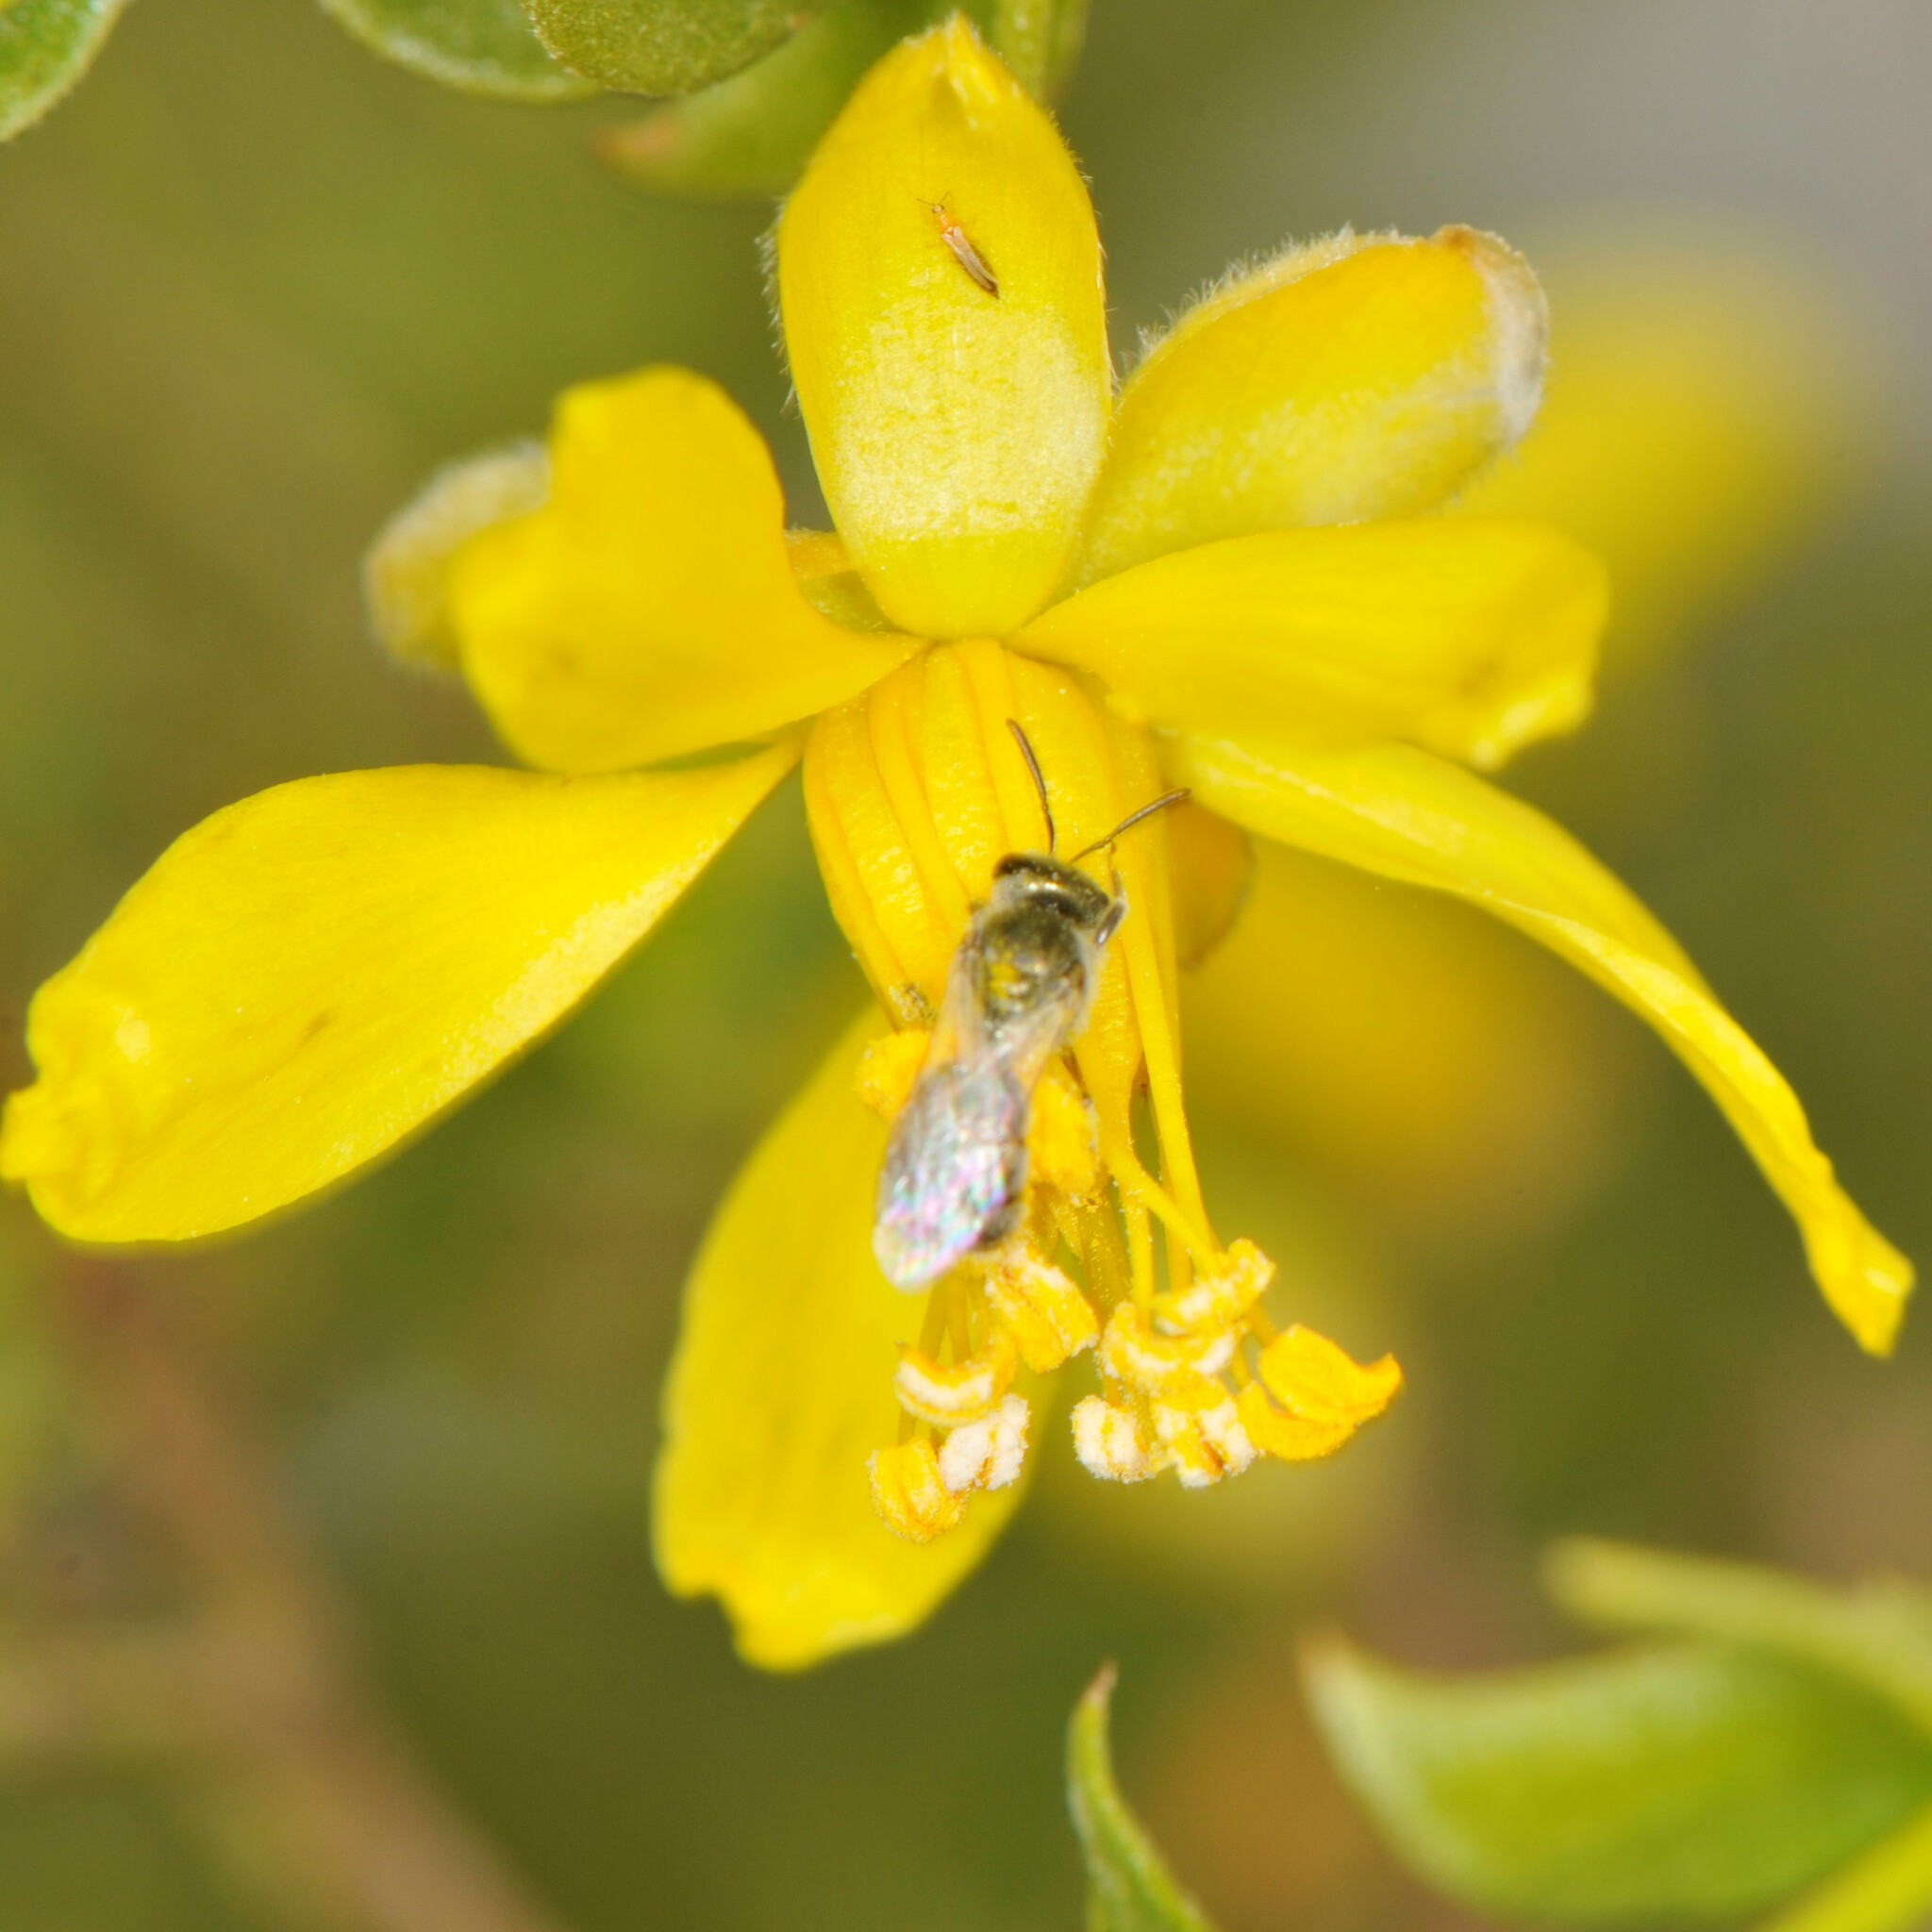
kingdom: Animalia
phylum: Arthropoda
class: Insecta
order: Hymenoptera
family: Halictidae
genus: Dialictus
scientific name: Dialictus
